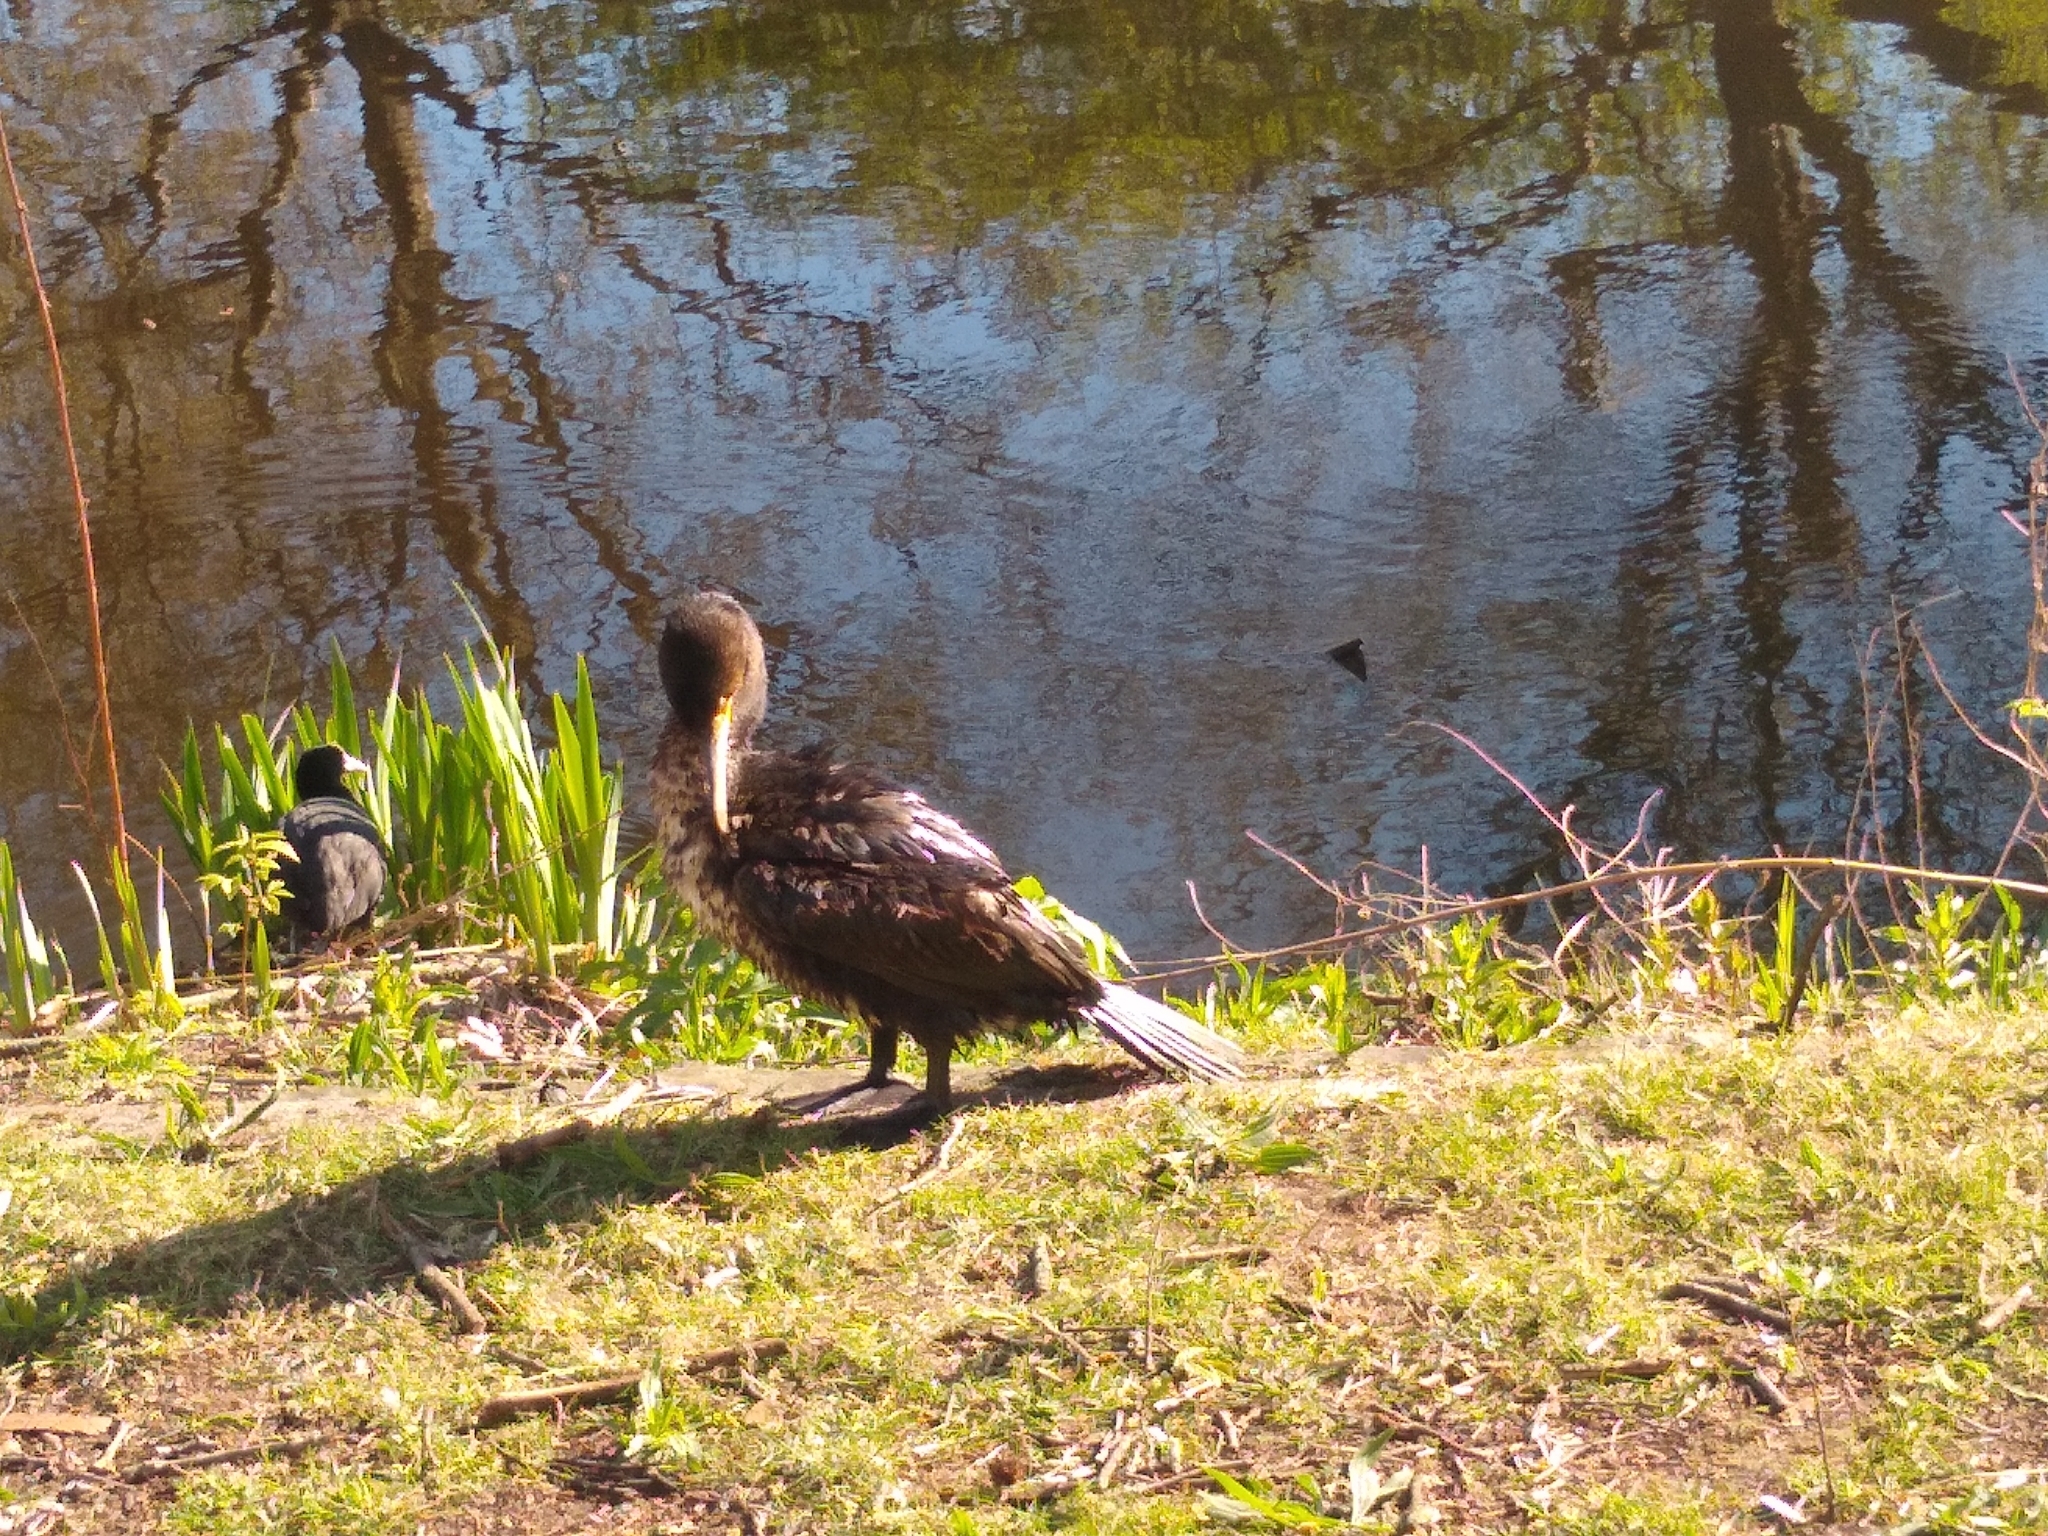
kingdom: Animalia
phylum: Chordata
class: Aves
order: Suliformes
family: Phalacrocoracidae
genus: Phalacrocorax
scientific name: Phalacrocorax carbo
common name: Great cormorant
